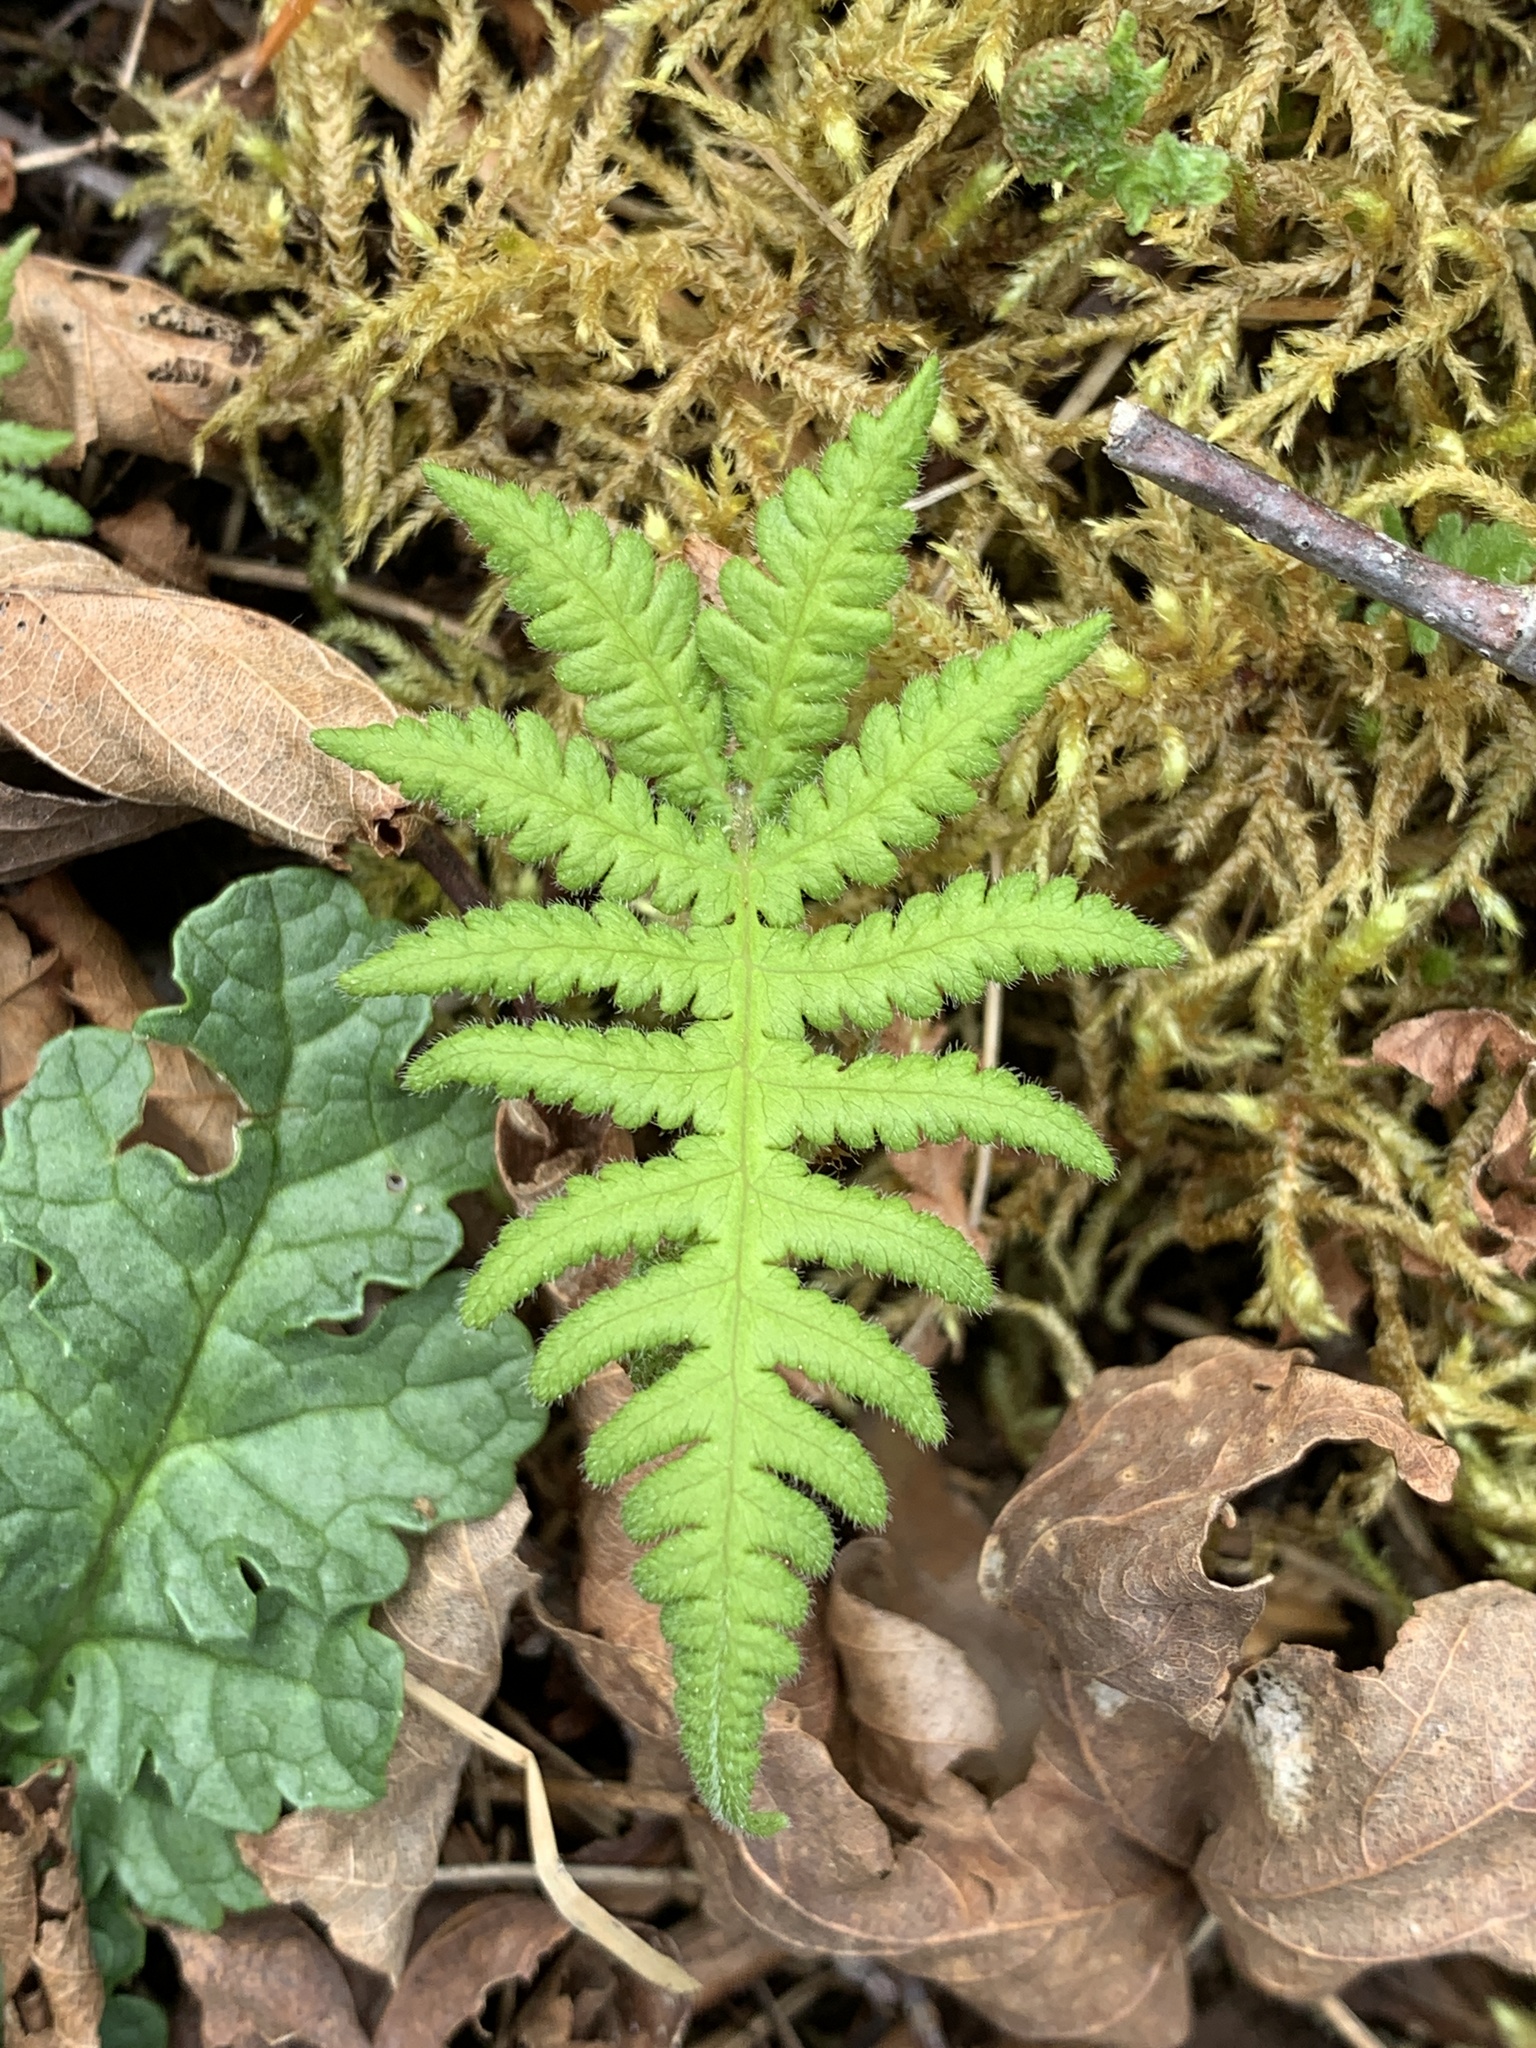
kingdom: Plantae
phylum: Tracheophyta
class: Polypodiopsida
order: Polypodiales
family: Thelypteridaceae
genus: Phegopteris
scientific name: Phegopteris connectilis
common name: Beech fern
